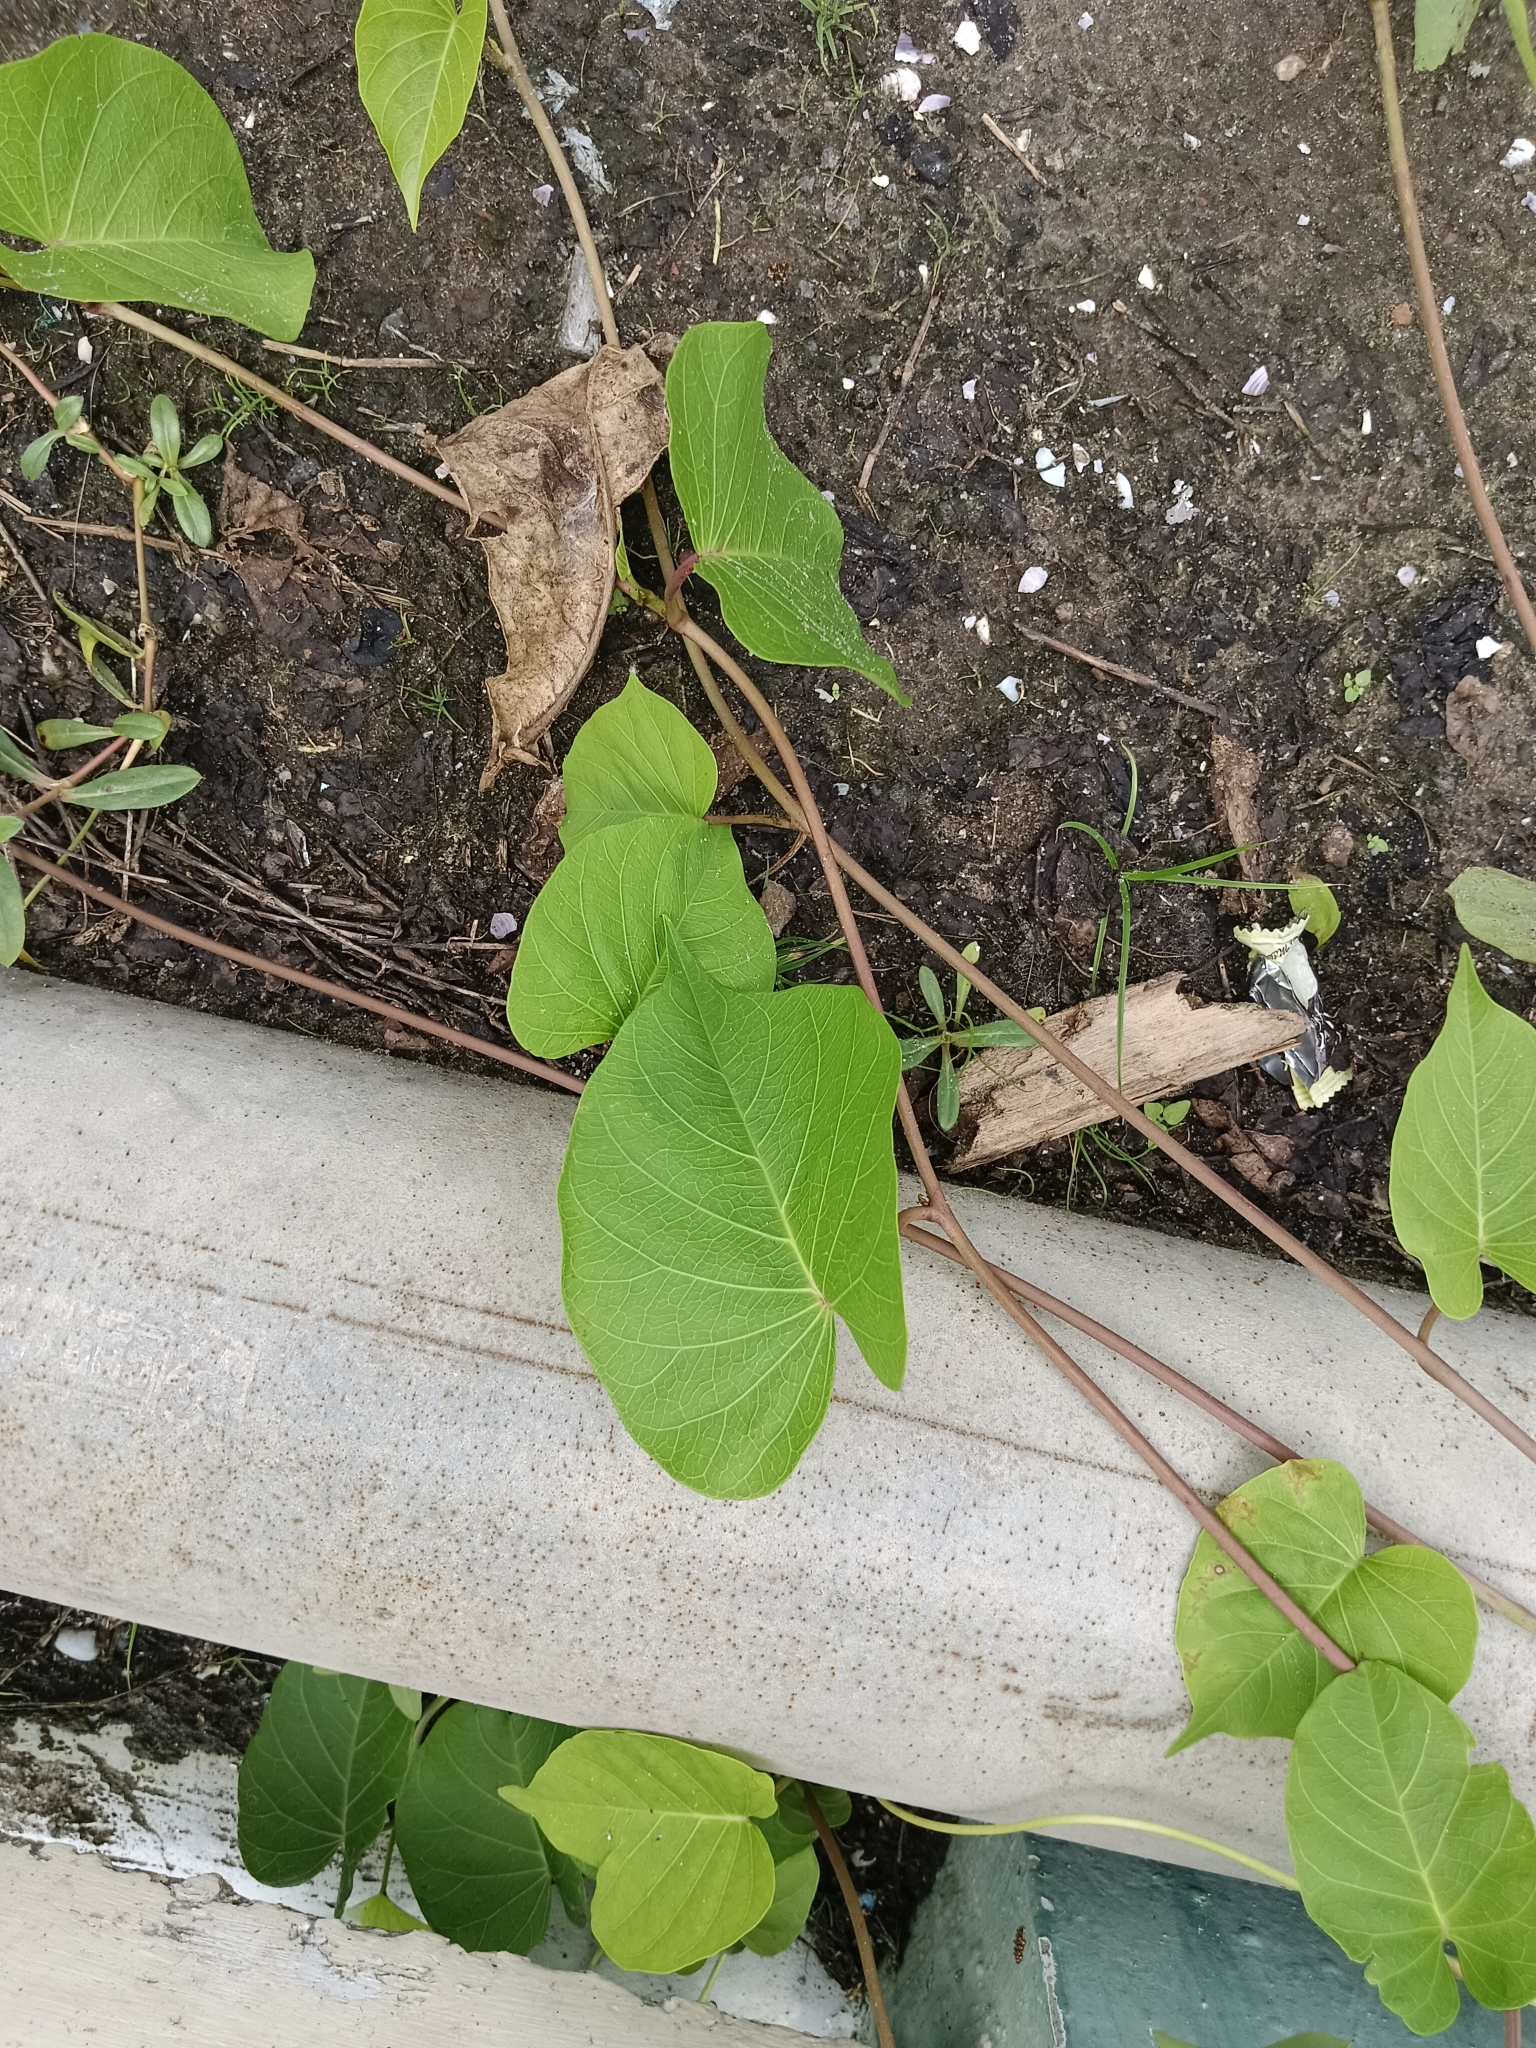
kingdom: Plantae
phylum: Tracheophyta
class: Magnoliopsida
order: Solanales
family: Convolvulaceae
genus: Ipomoea
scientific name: Ipomoea violacea
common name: Beach moonflower
